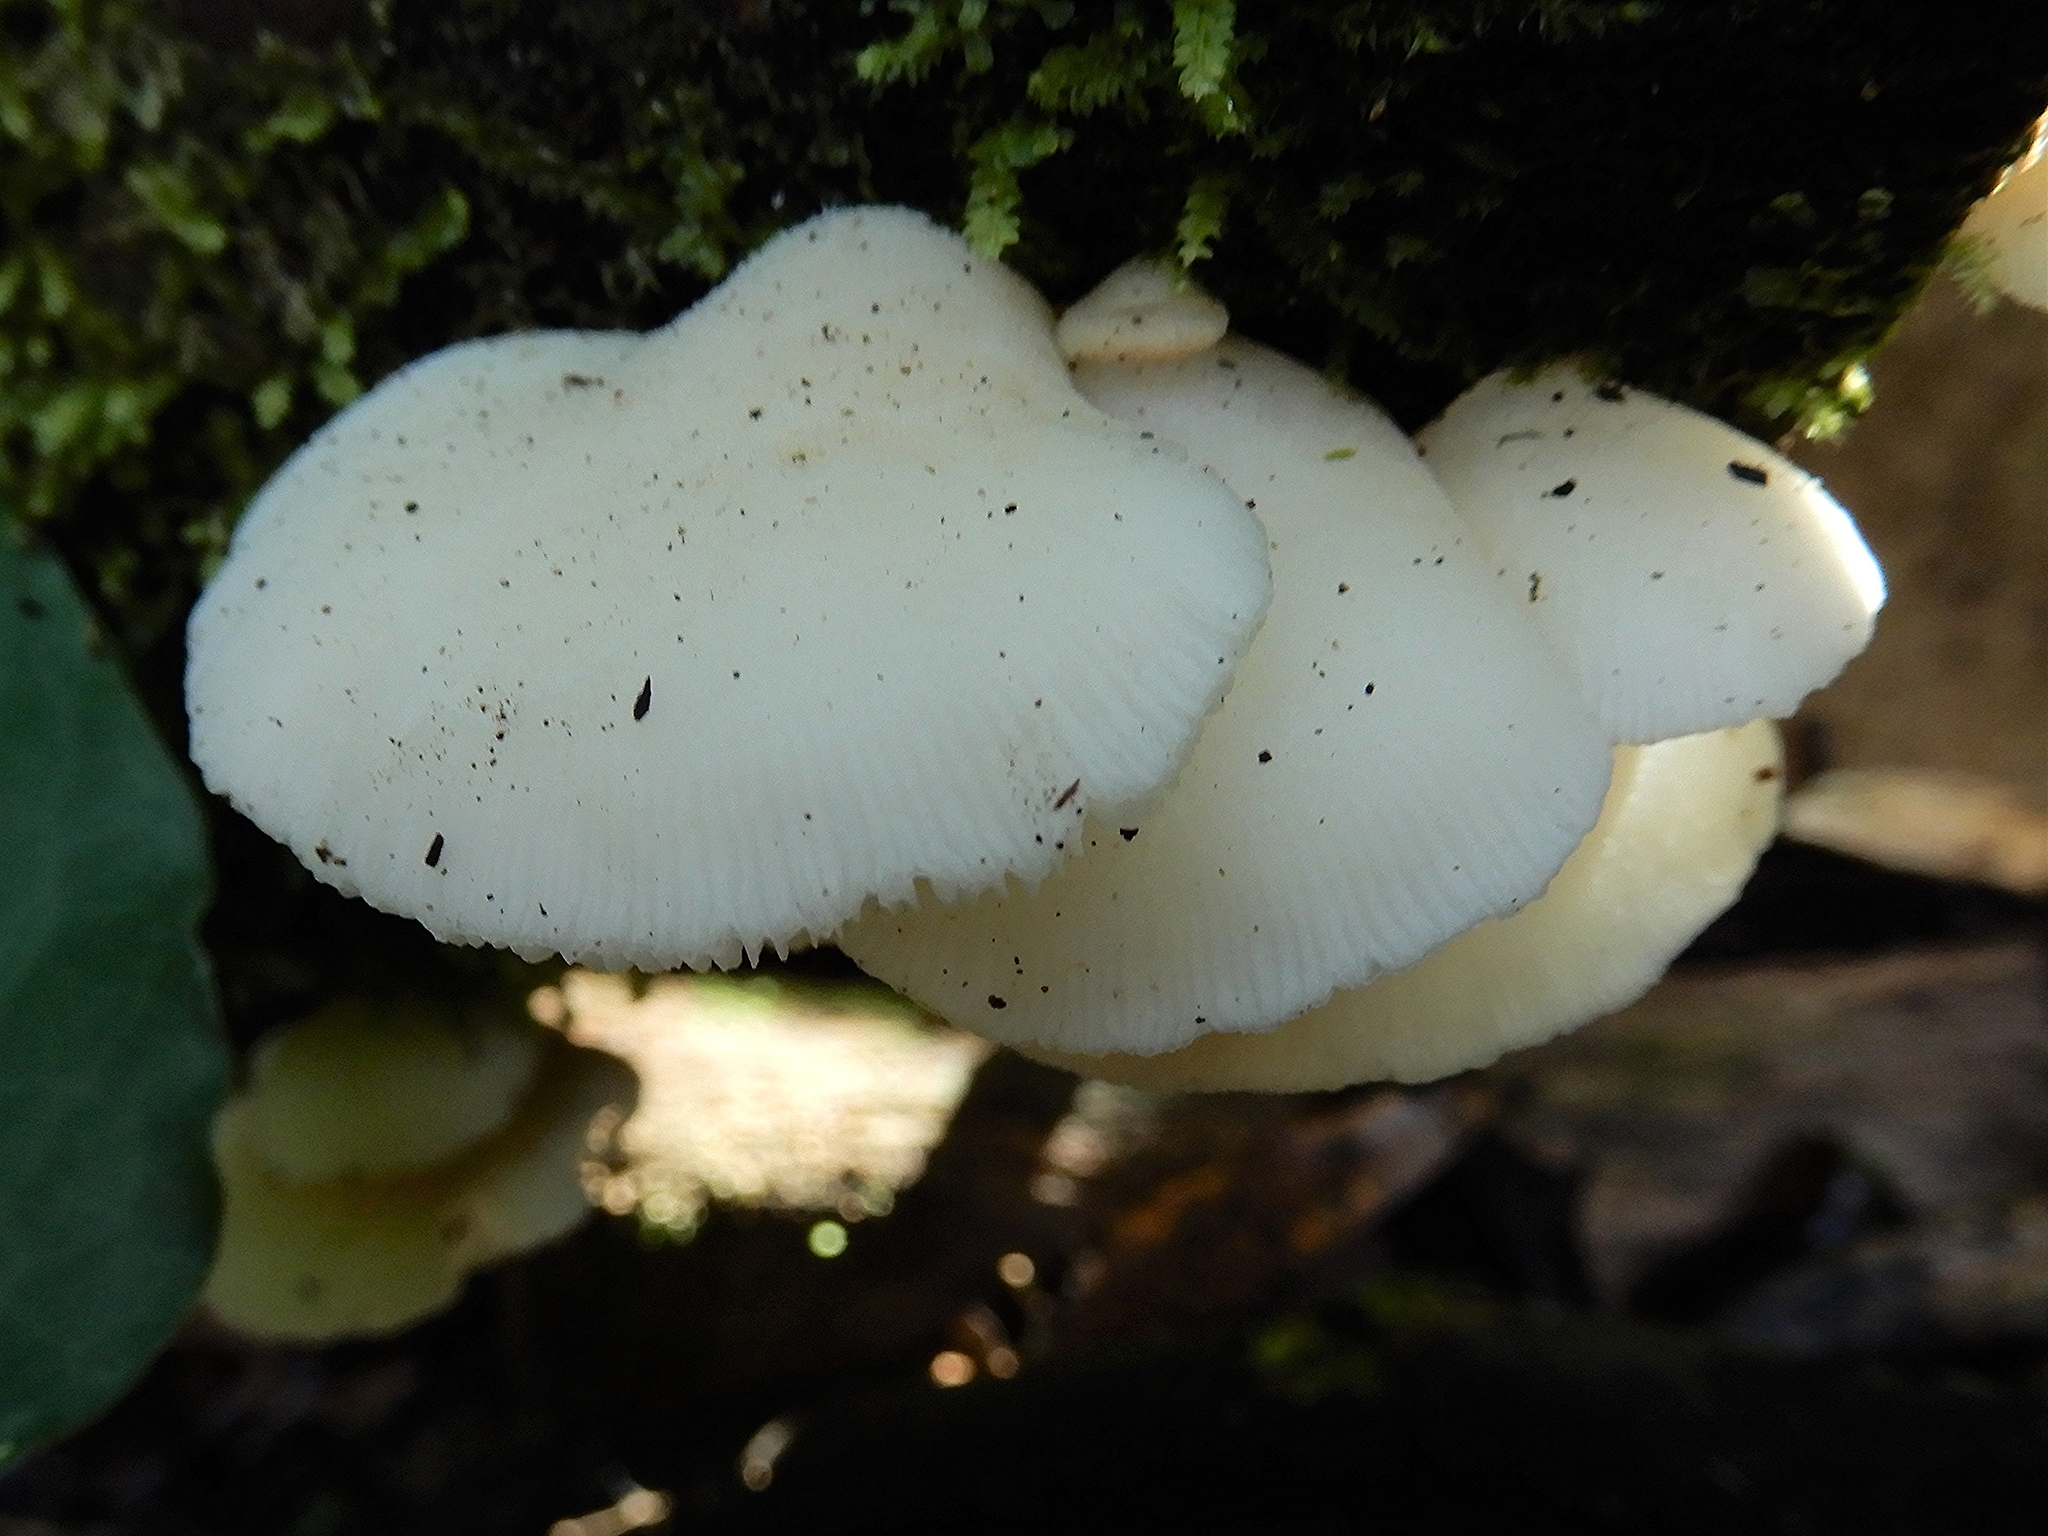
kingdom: Fungi
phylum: Basidiomycota
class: Agaricomycetes
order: Agaricales
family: Tricholomataceae
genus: Conchomyces
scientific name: Conchomyces bursiformis
